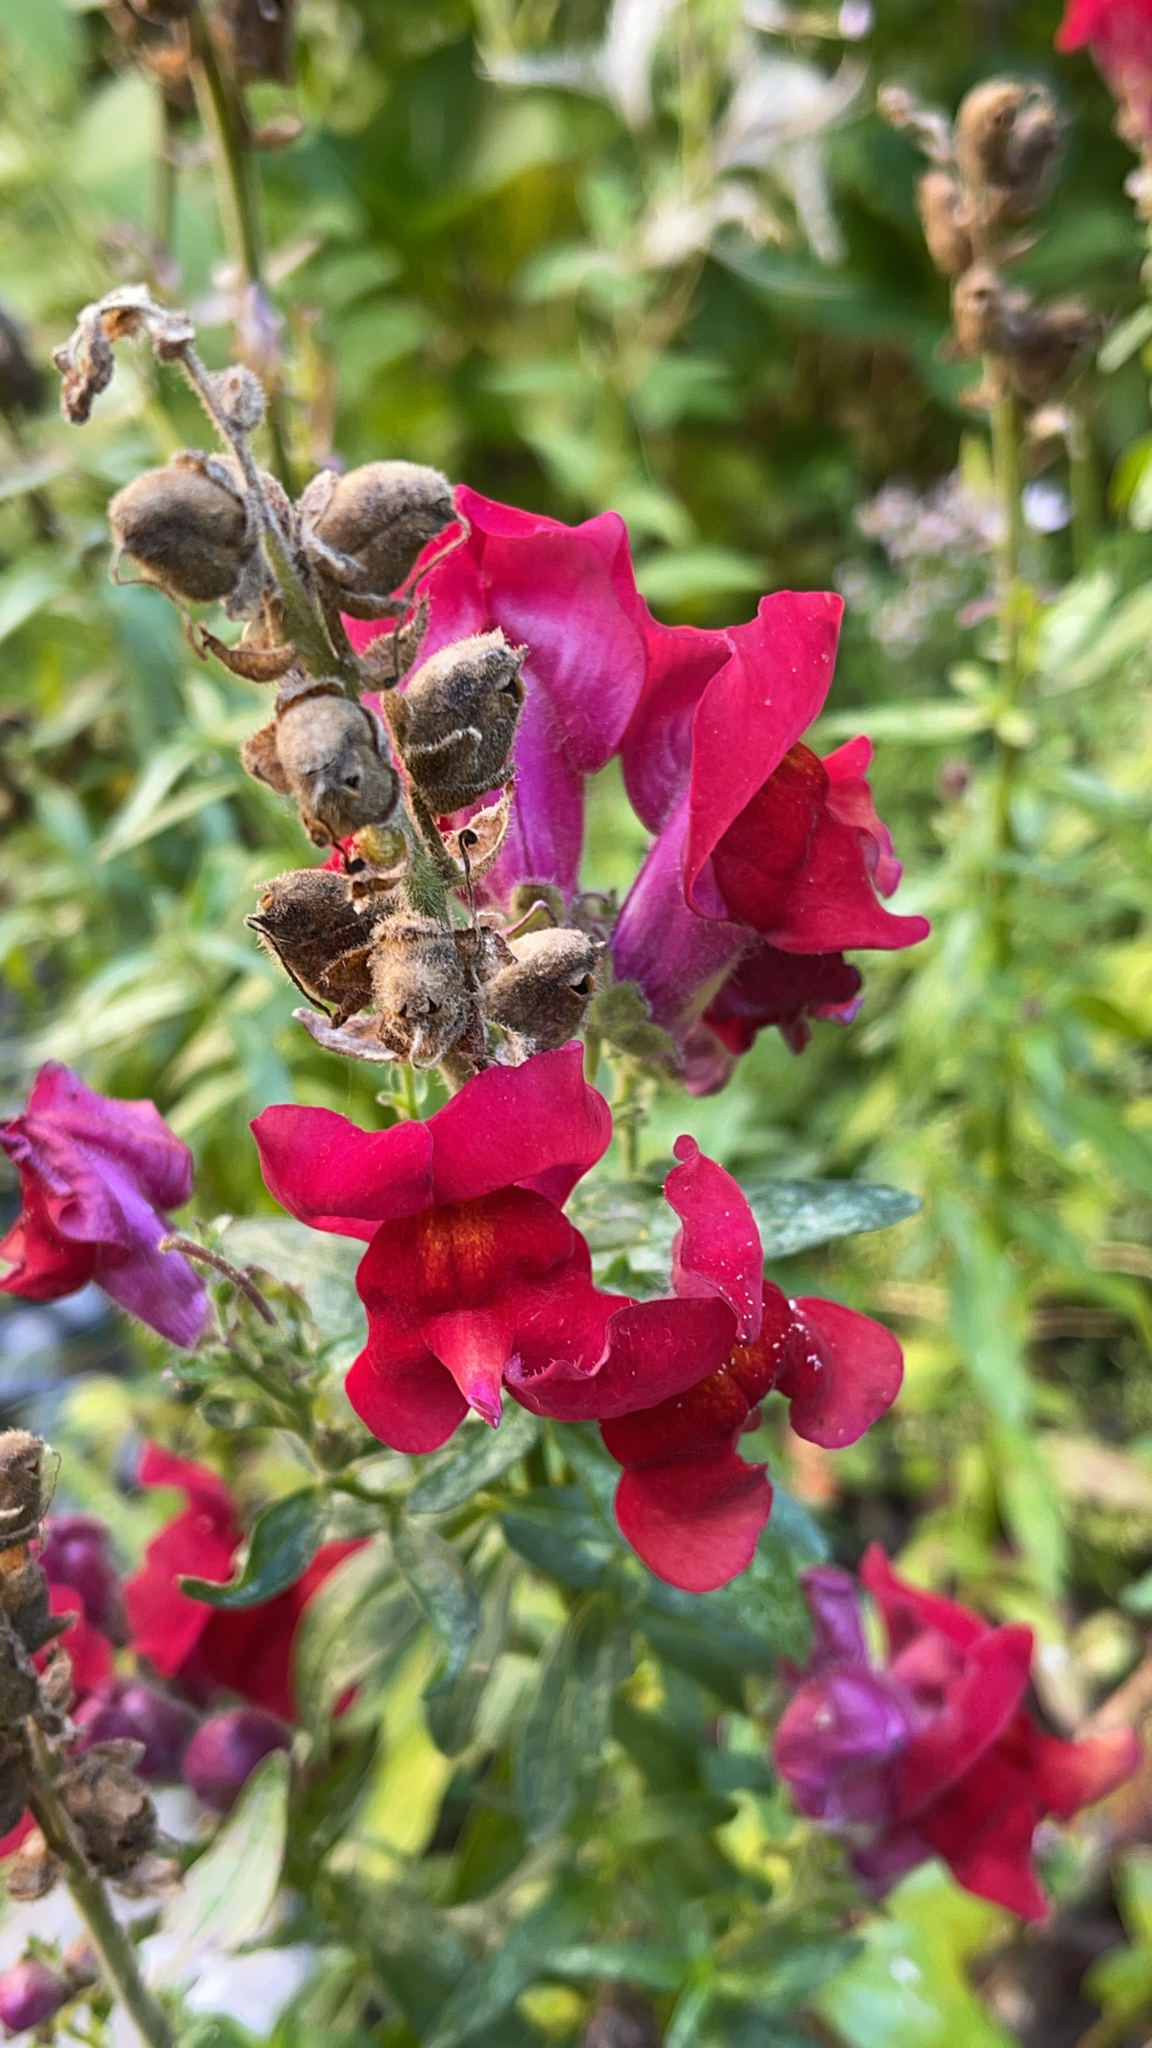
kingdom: Plantae
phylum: Tracheophyta
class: Magnoliopsida
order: Lamiales
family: Plantaginaceae
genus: Antirrhinum
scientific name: Antirrhinum majus
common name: Snapdragon
